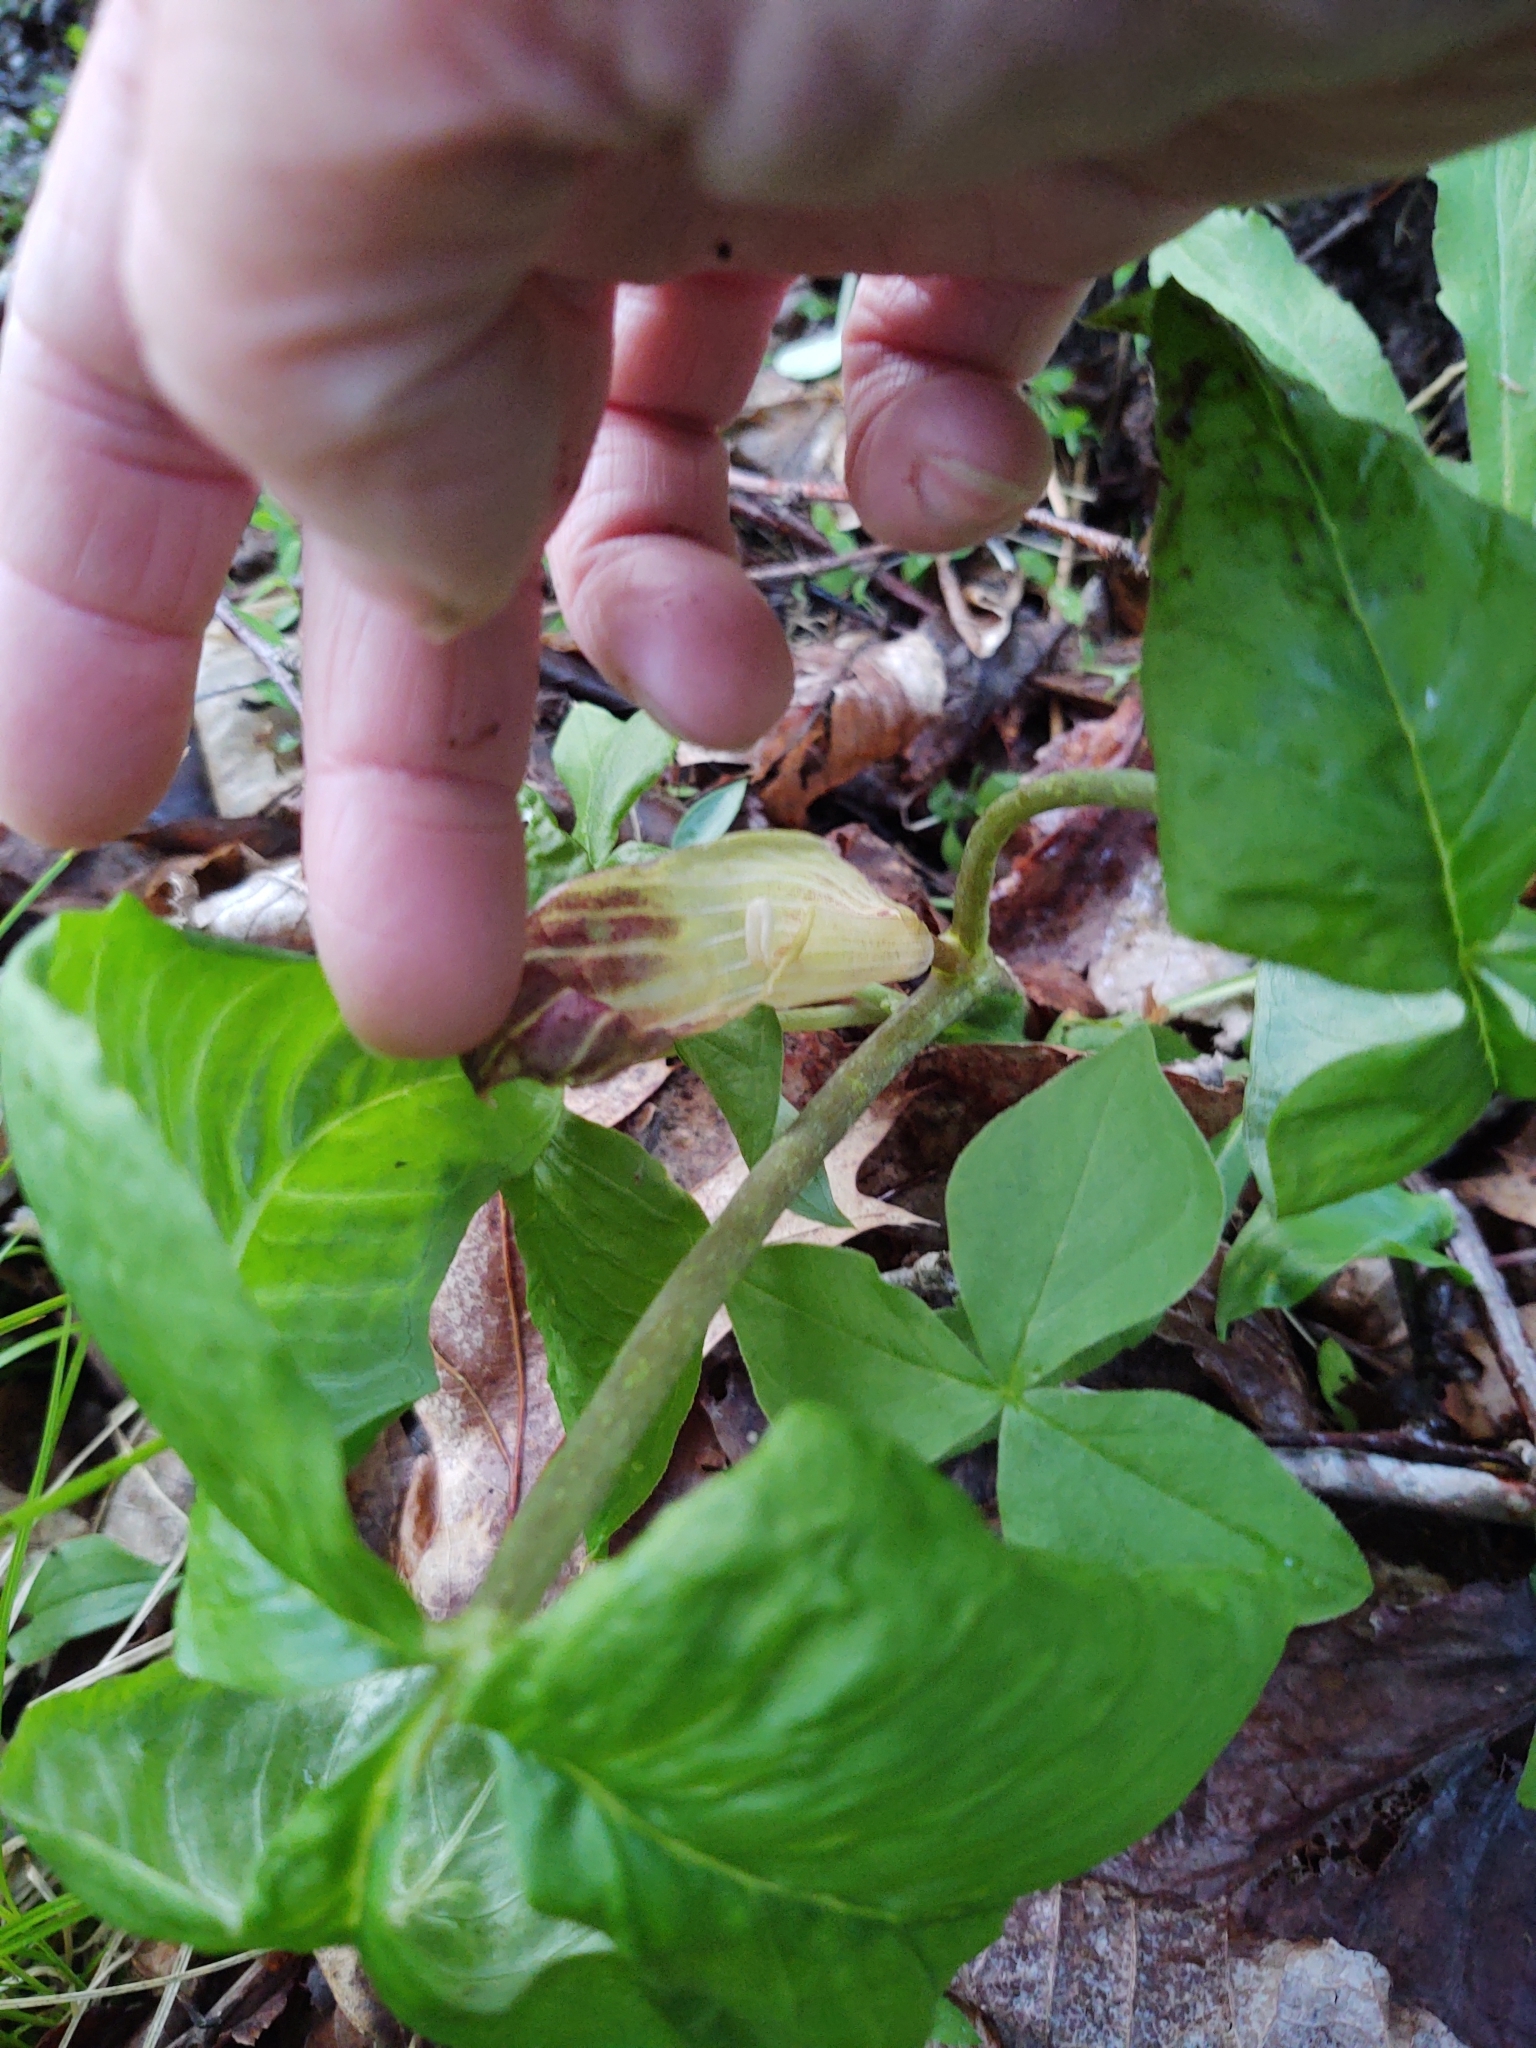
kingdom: Plantae
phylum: Tracheophyta
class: Liliopsida
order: Alismatales
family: Araceae
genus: Arisaema
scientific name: Arisaema triphyllum
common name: Jack-in-the-pulpit
